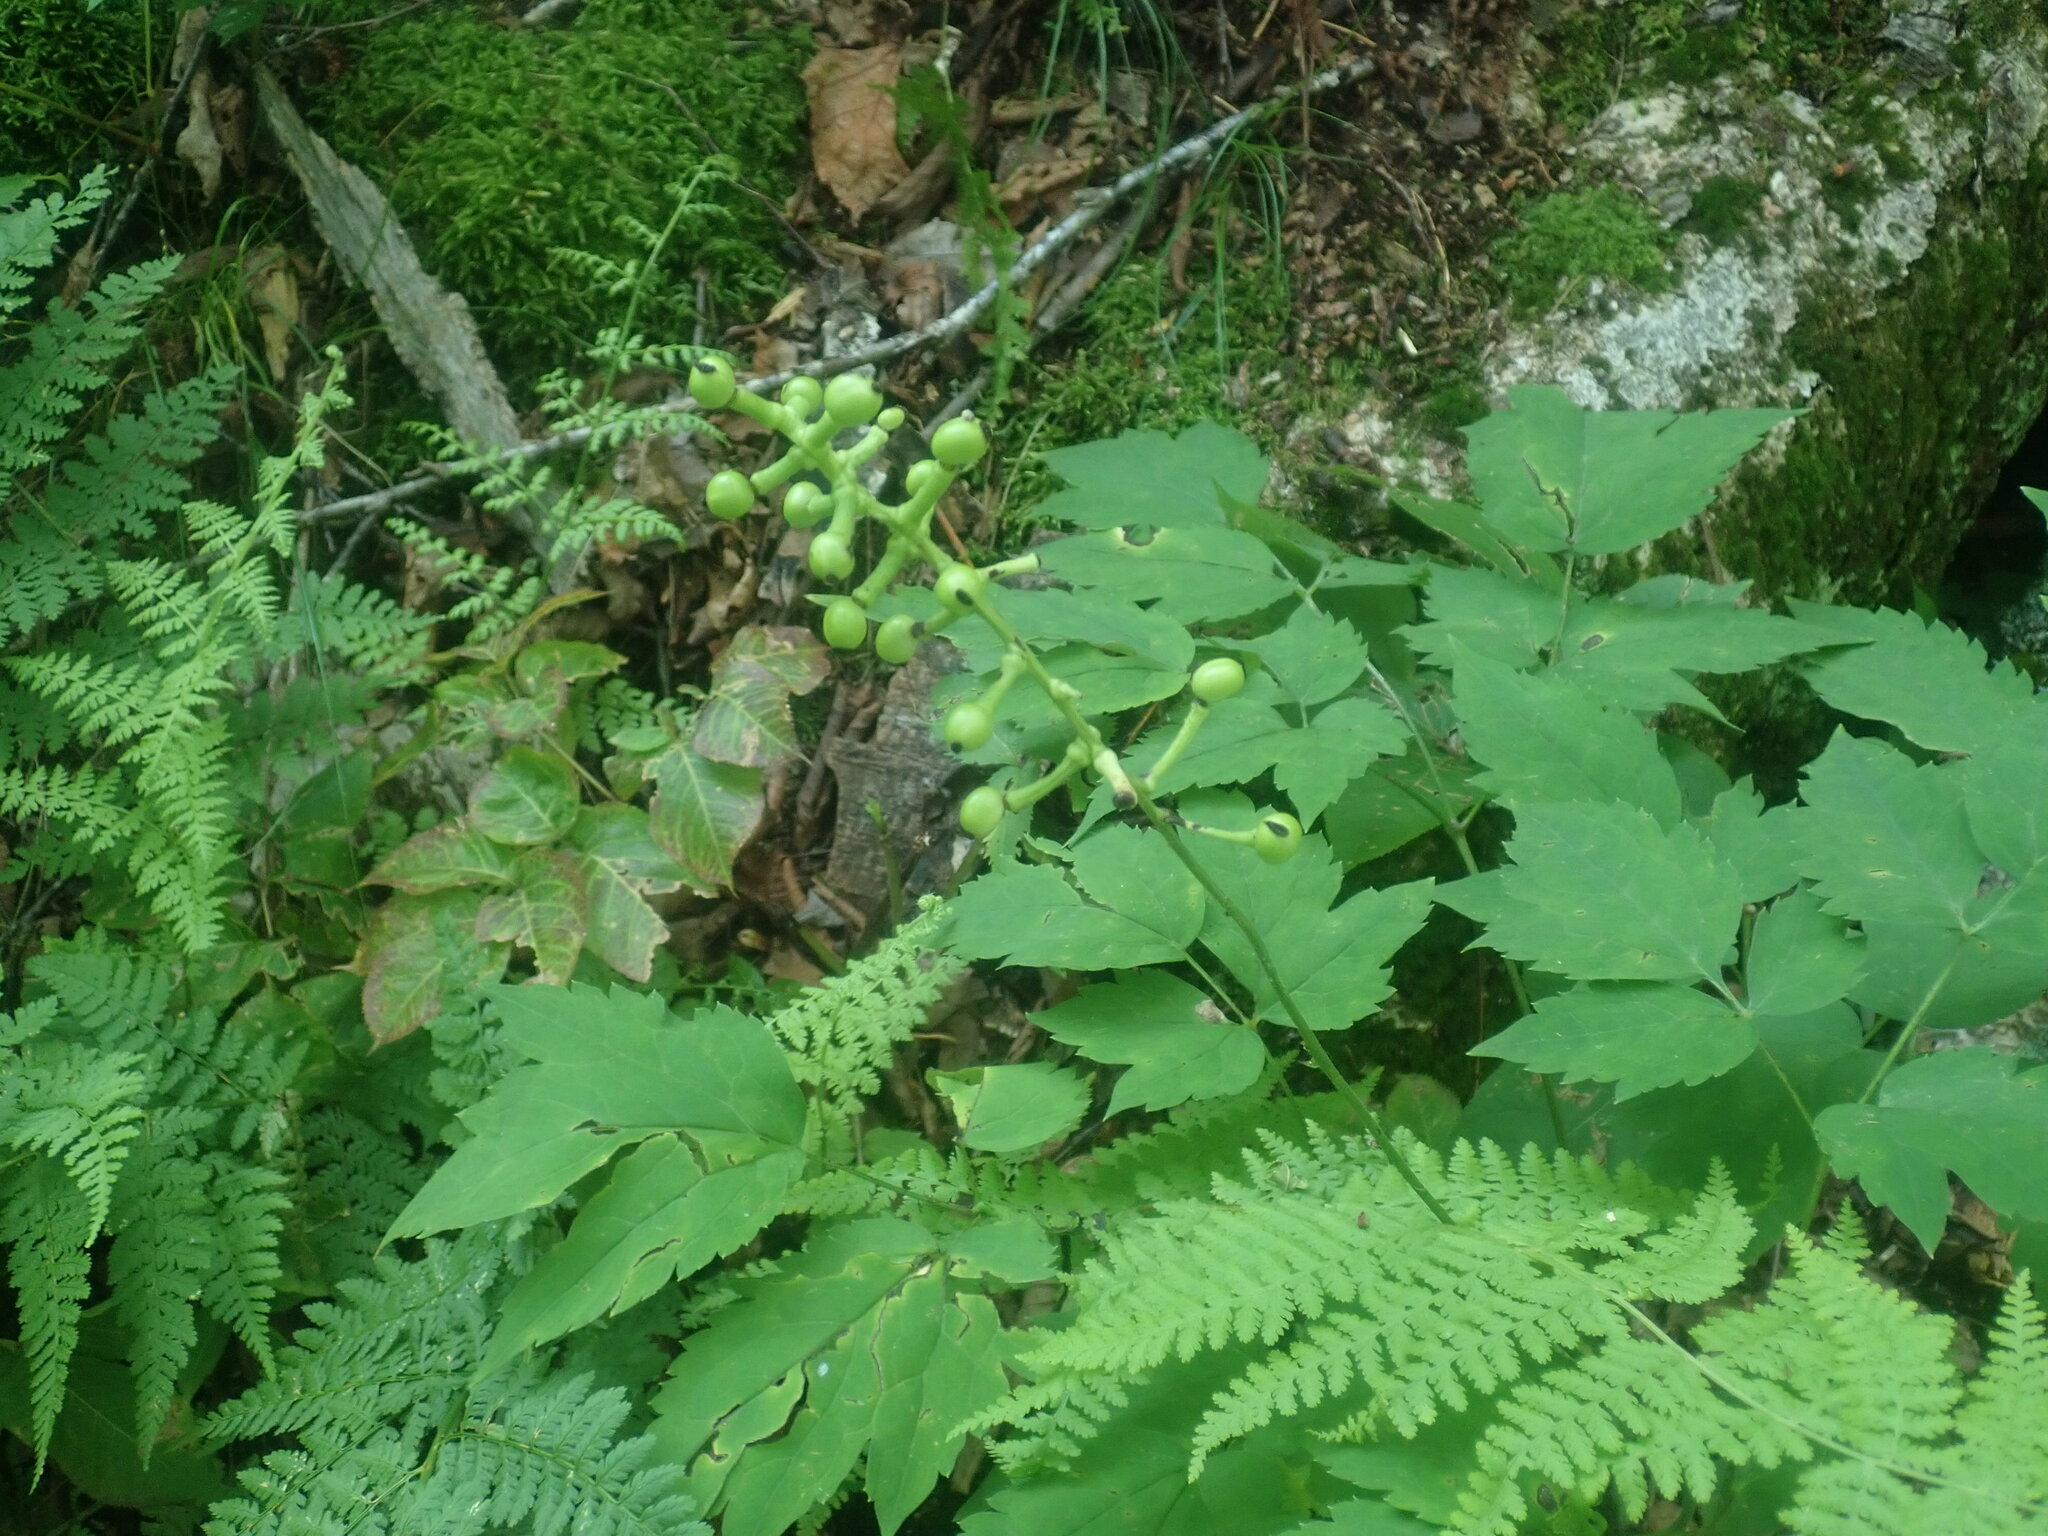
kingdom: Plantae
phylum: Tracheophyta
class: Magnoliopsida
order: Ranunculales
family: Ranunculaceae
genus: Actaea
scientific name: Actaea pachypoda
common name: Doll's-eyes
